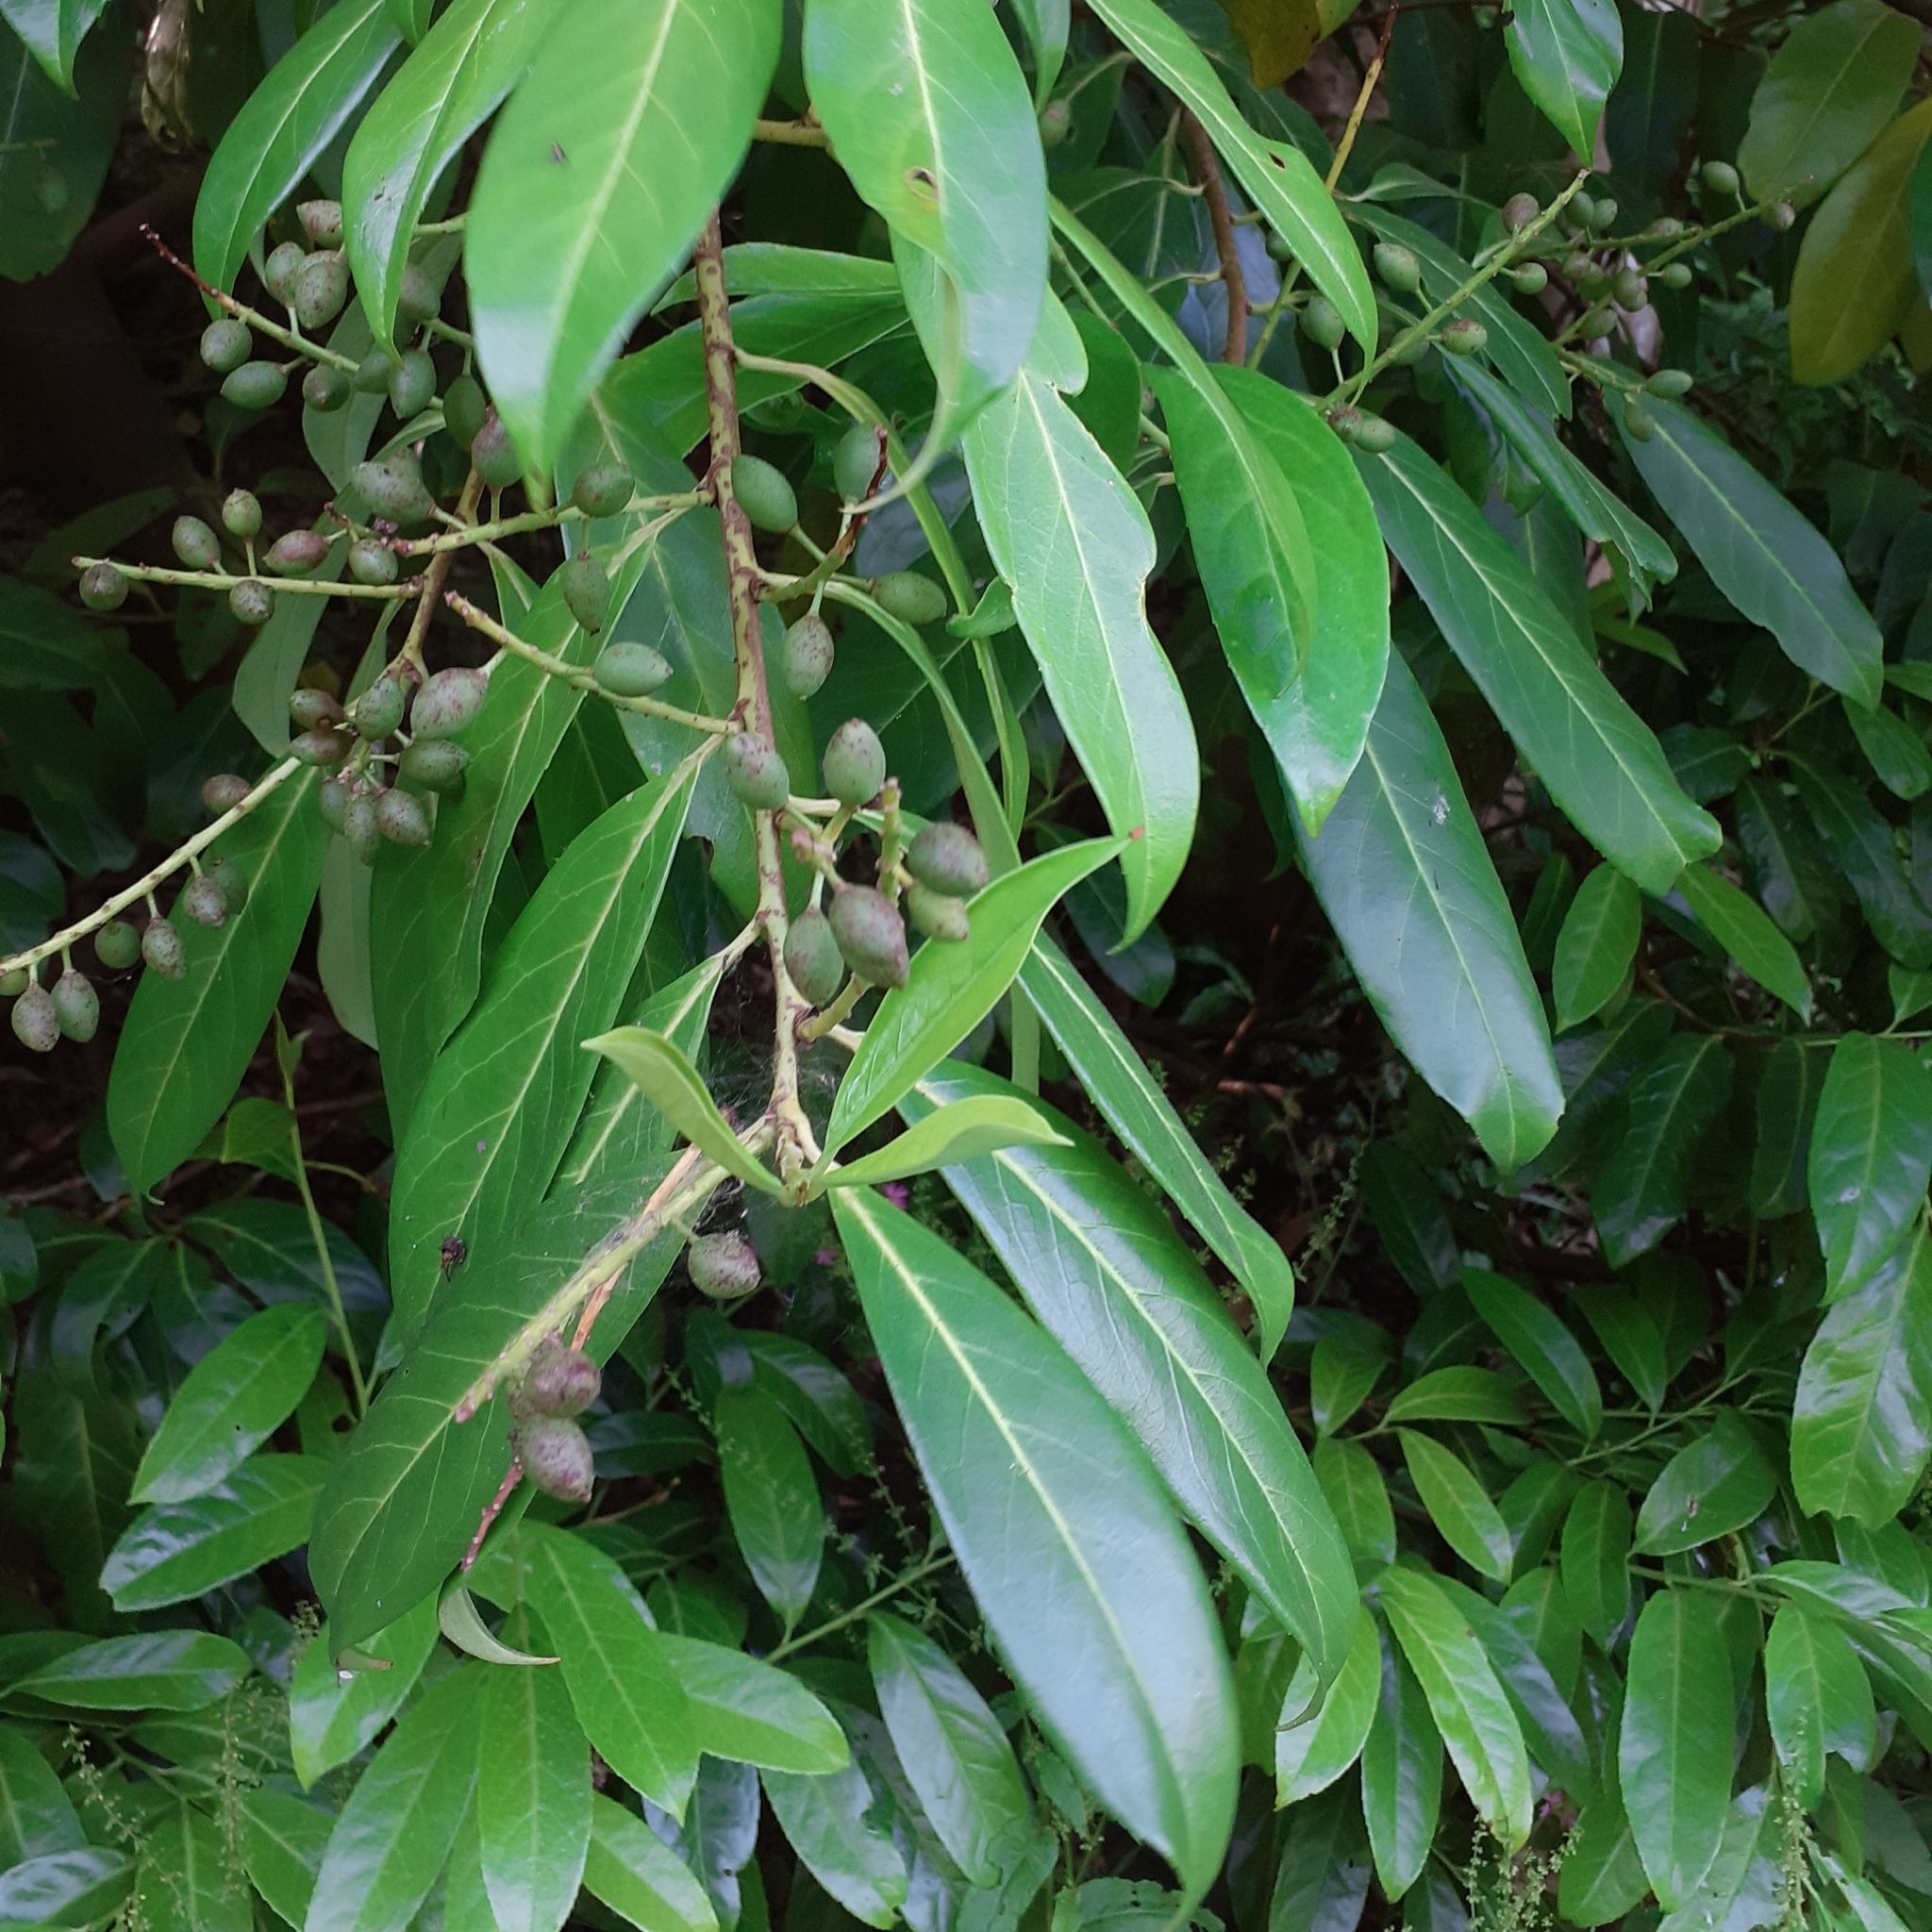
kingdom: Plantae
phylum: Tracheophyta
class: Magnoliopsida
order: Rosales
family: Rosaceae
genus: Prunus
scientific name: Prunus laurocerasus
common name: Cherry laurel
